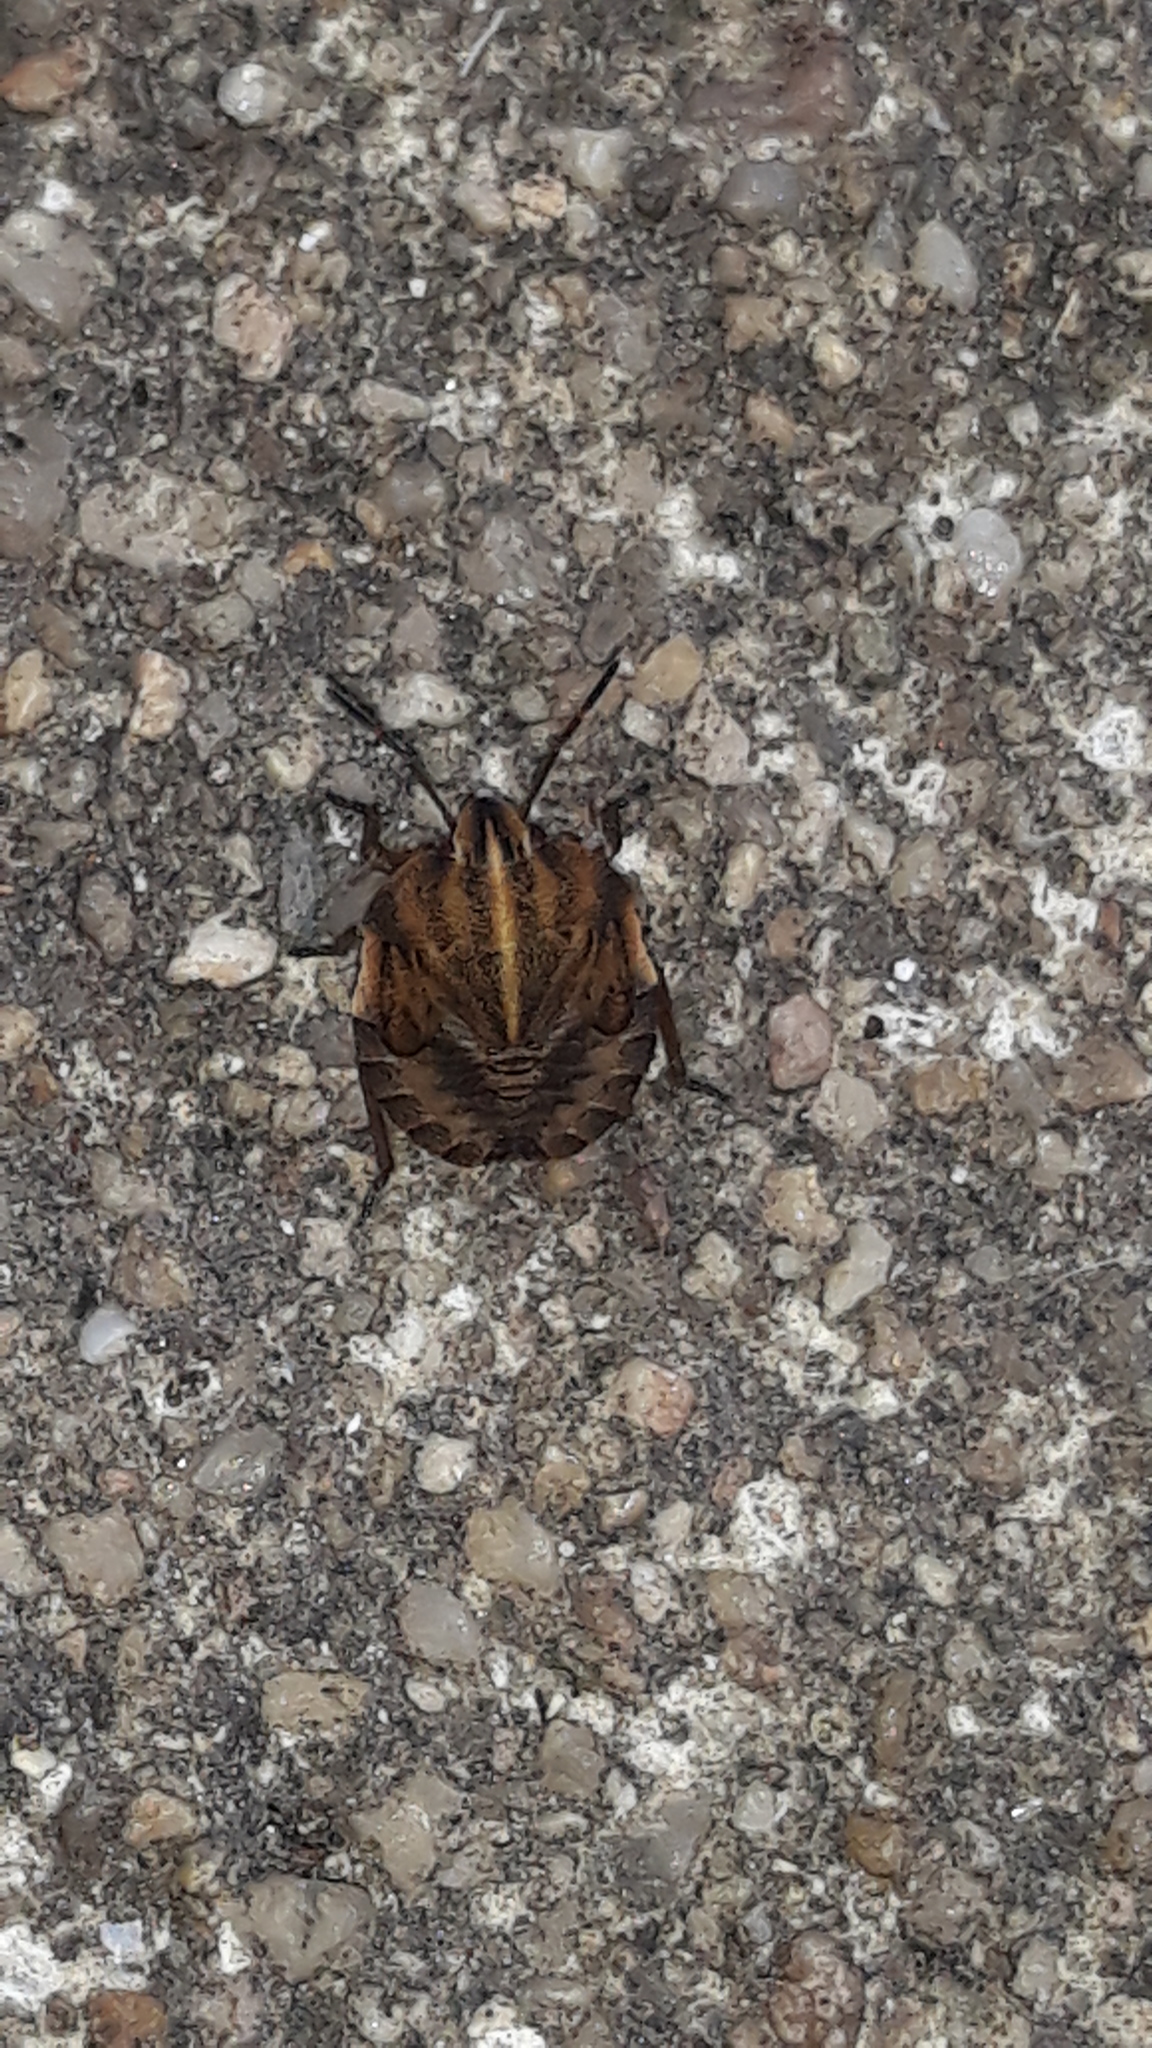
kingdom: Animalia
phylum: Arthropoda
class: Insecta
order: Hemiptera
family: Pentatomidae
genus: Graphosoma
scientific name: Graphosoma italicum
